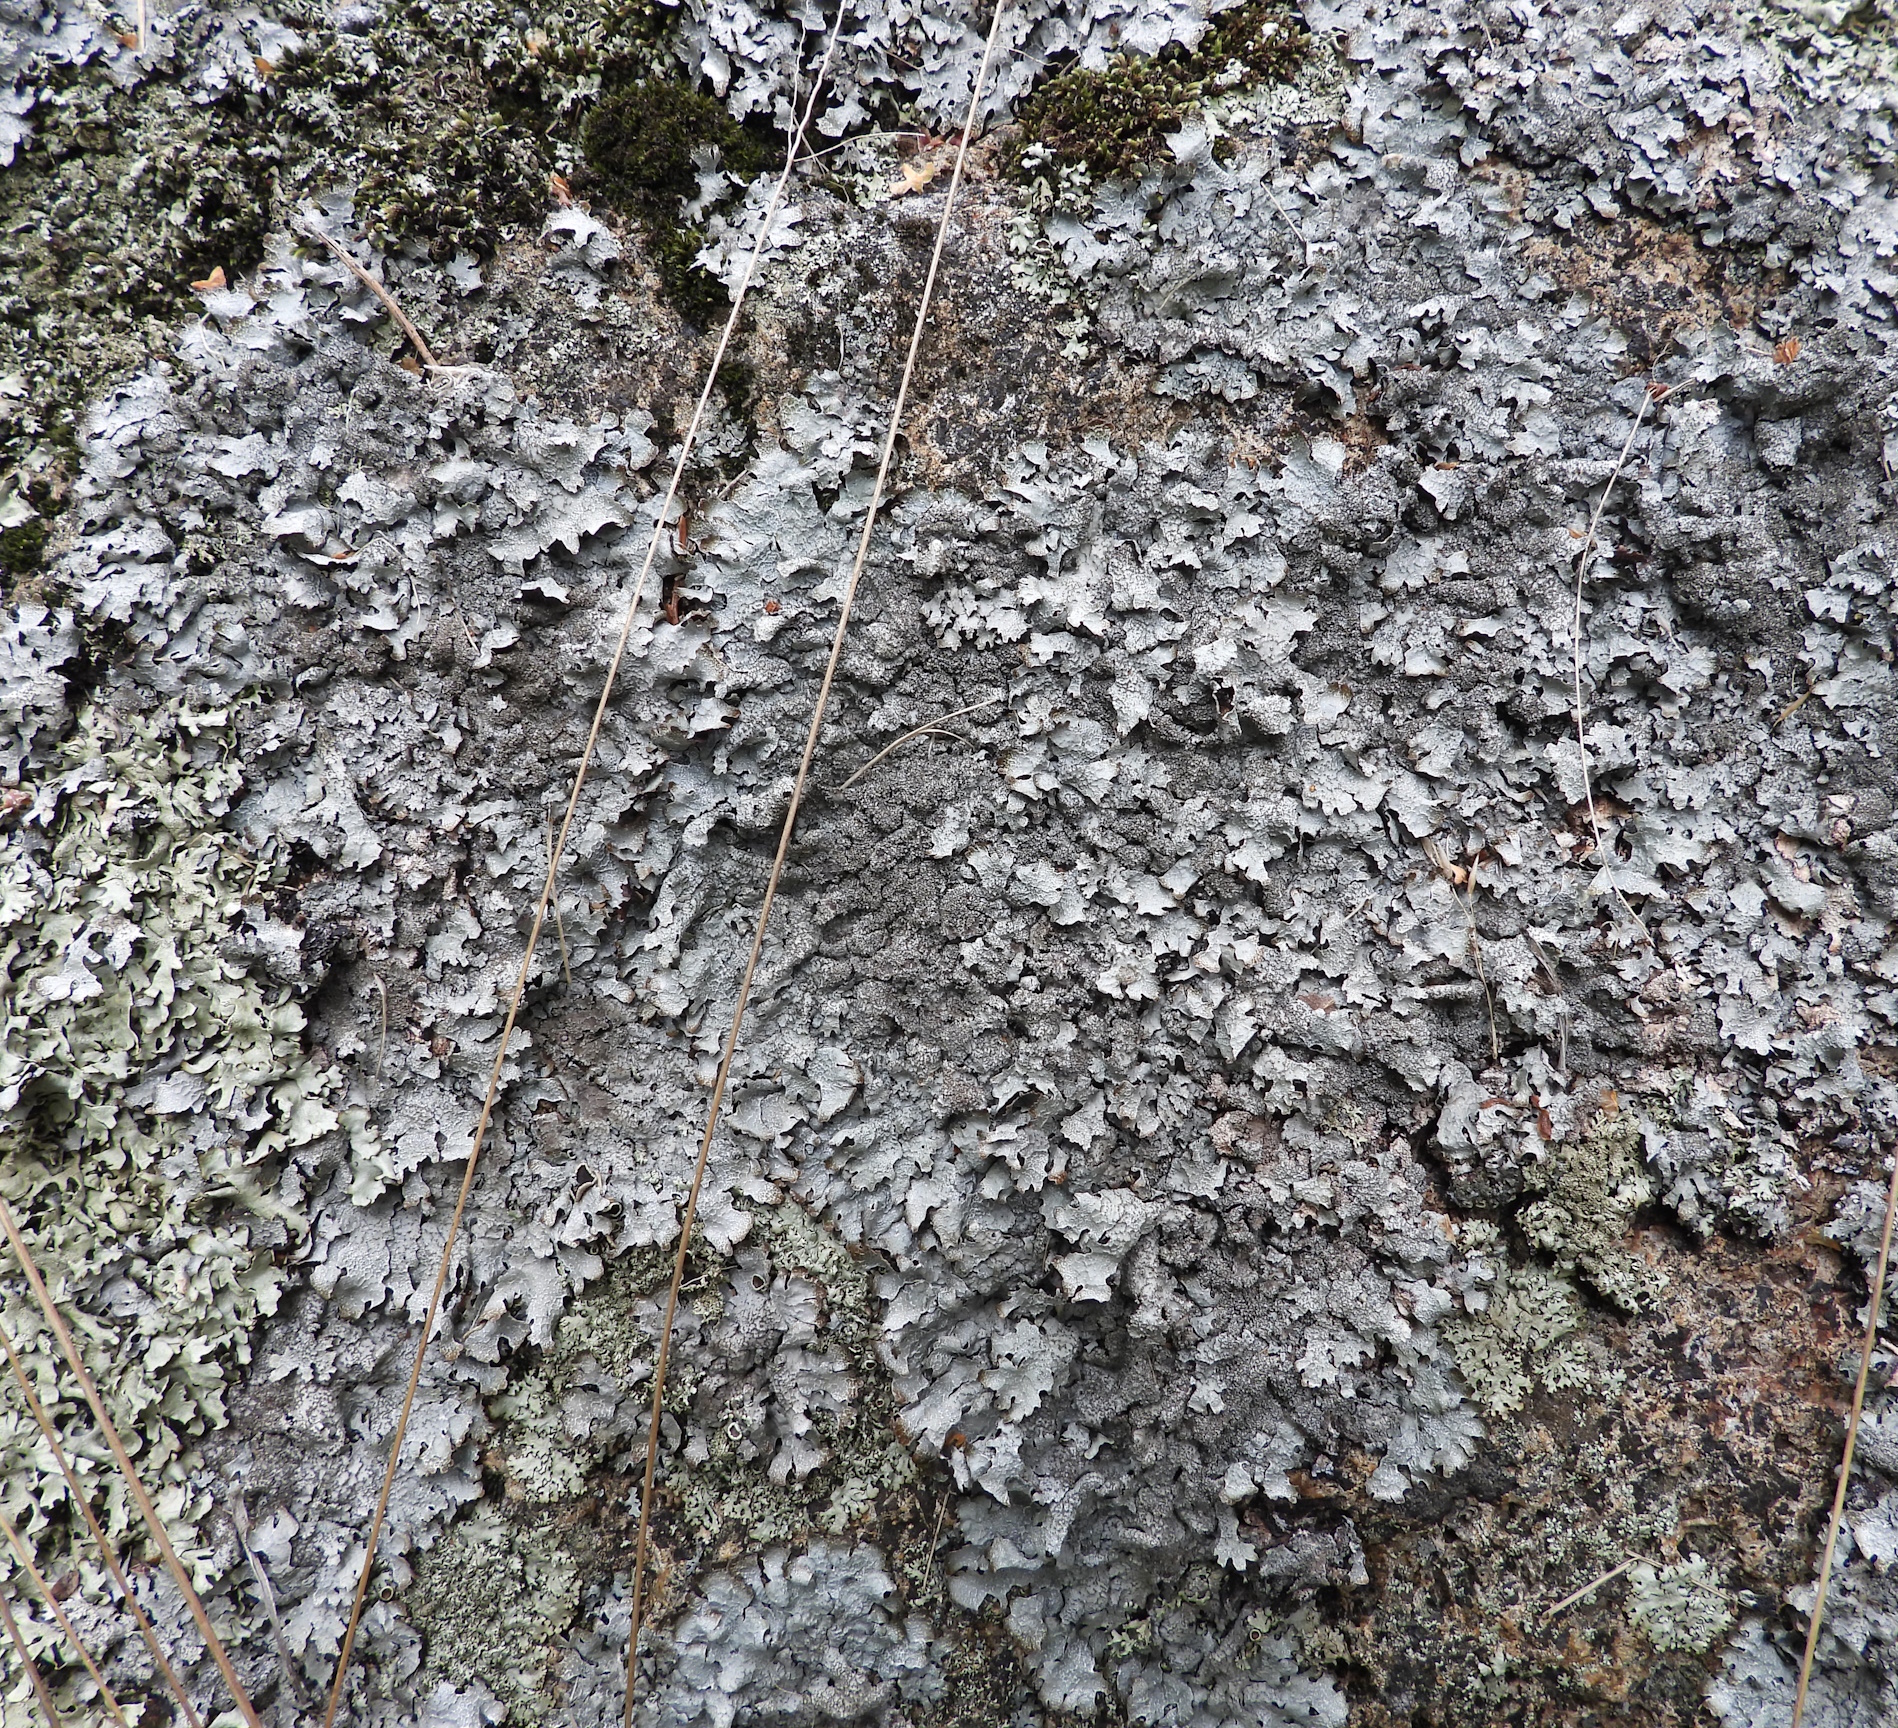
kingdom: Fungi
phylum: Ascomycota
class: Lecanoromycetes
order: Lecanorales
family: Parmeliaceae
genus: Parmelia
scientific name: Parmelia saxatilis
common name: Salted shield lichen
